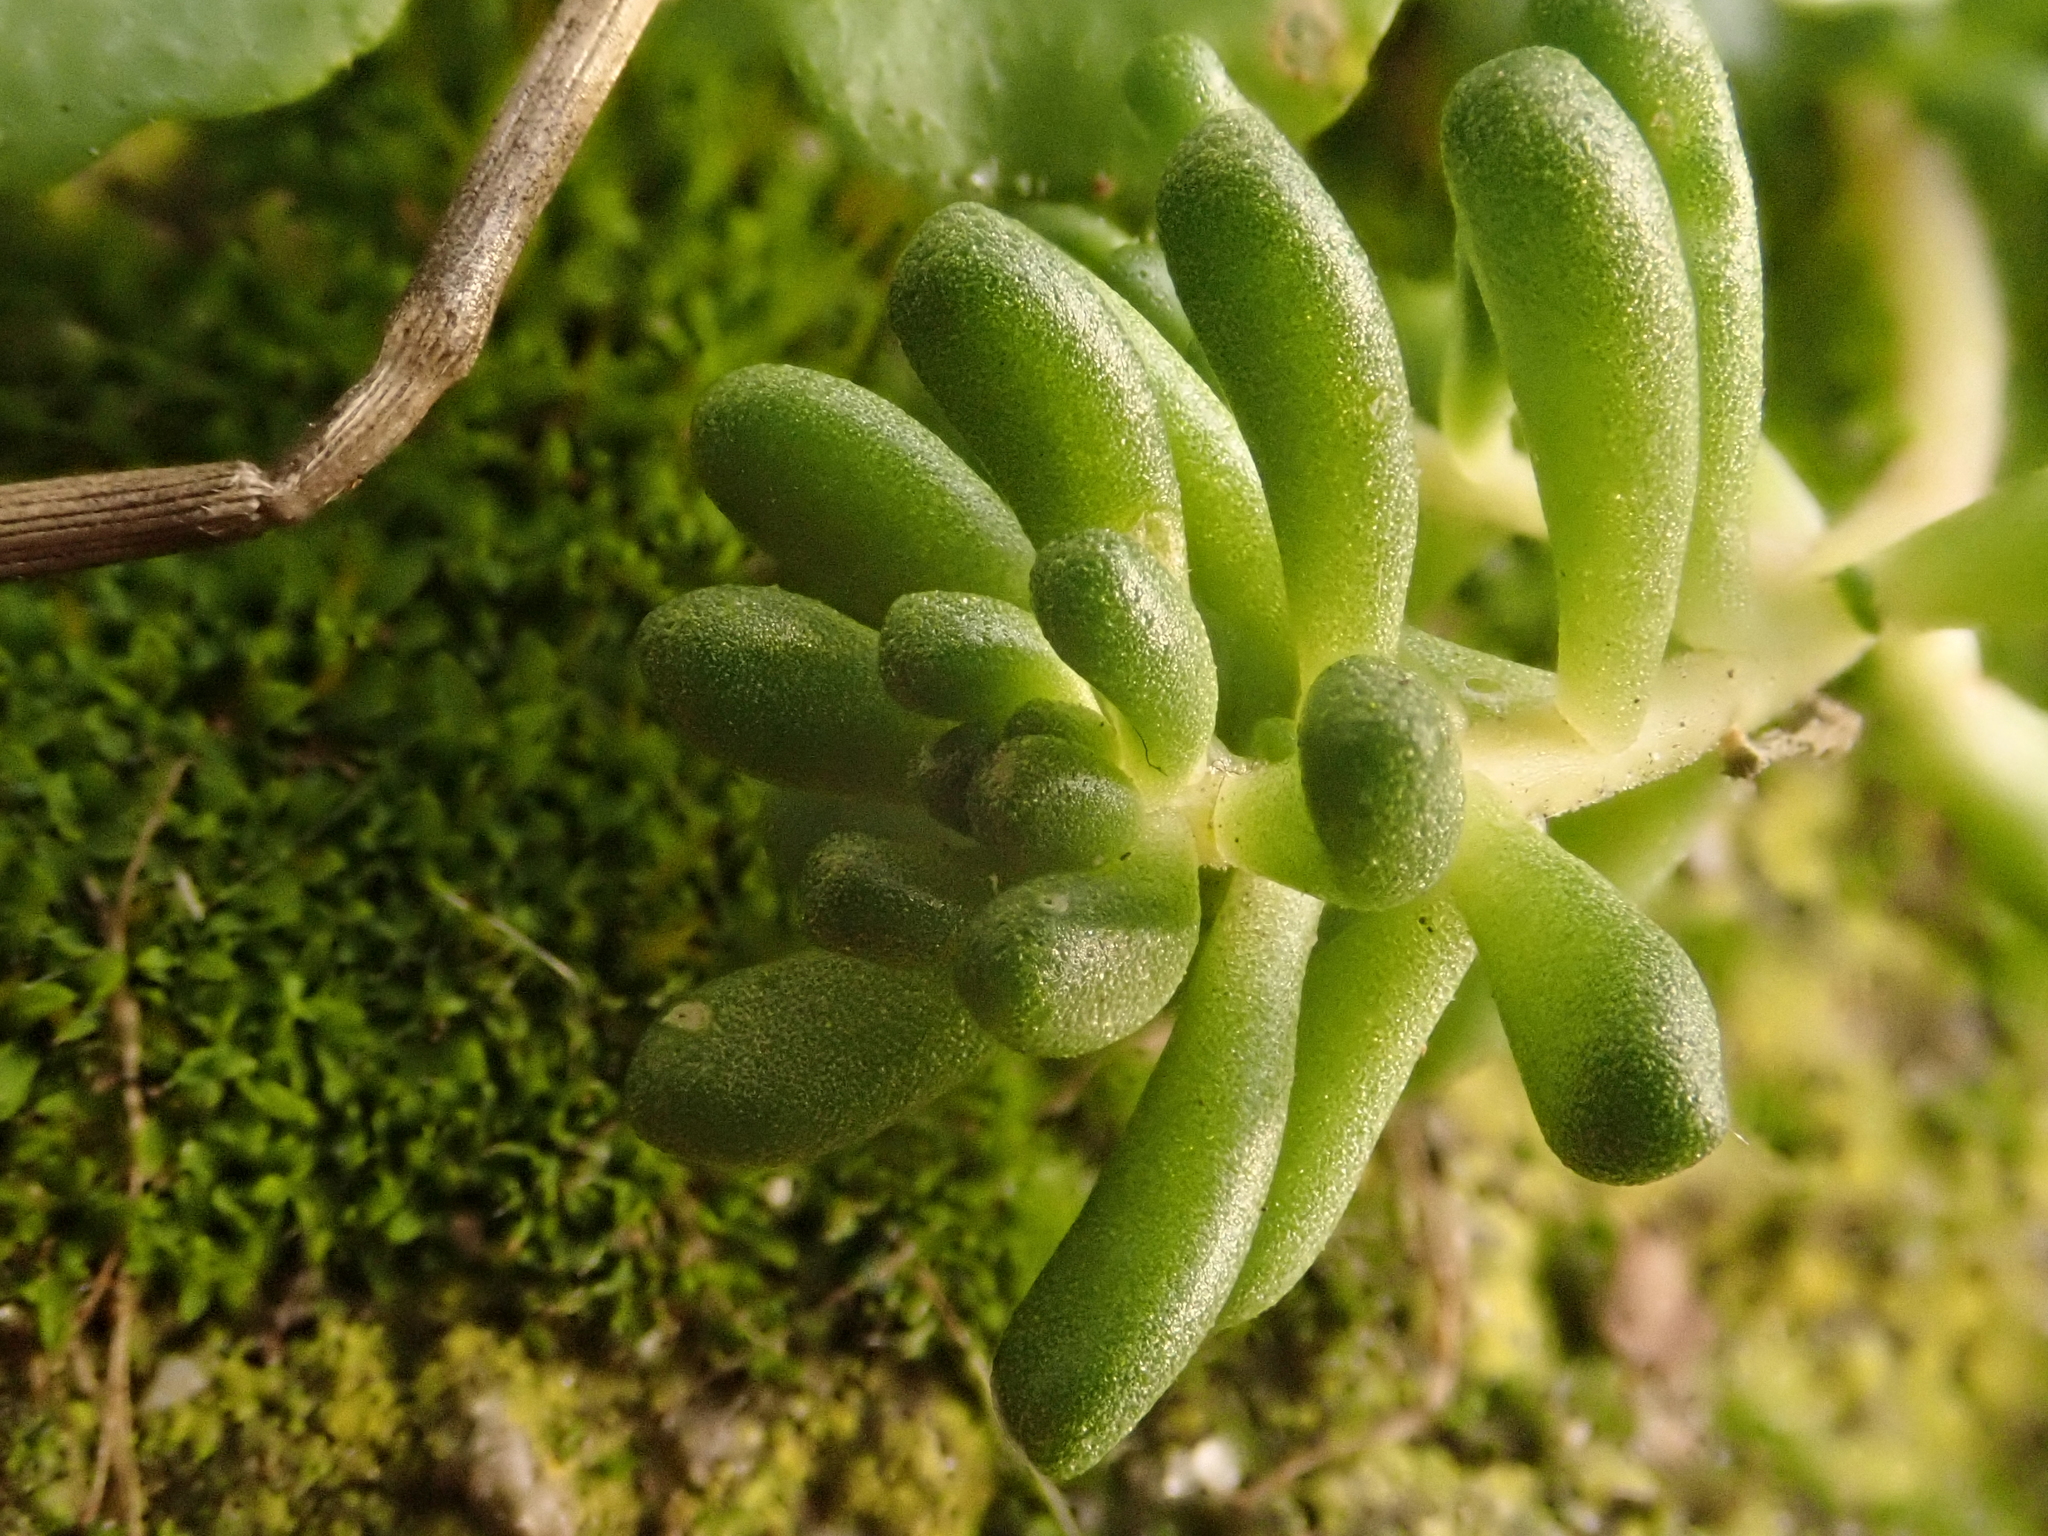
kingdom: Plantae
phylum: Tracheophyta
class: Magnoliopsida
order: Saxifragales
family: Crassulaceae
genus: Sedum
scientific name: Sedum album
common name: White stonecrop
